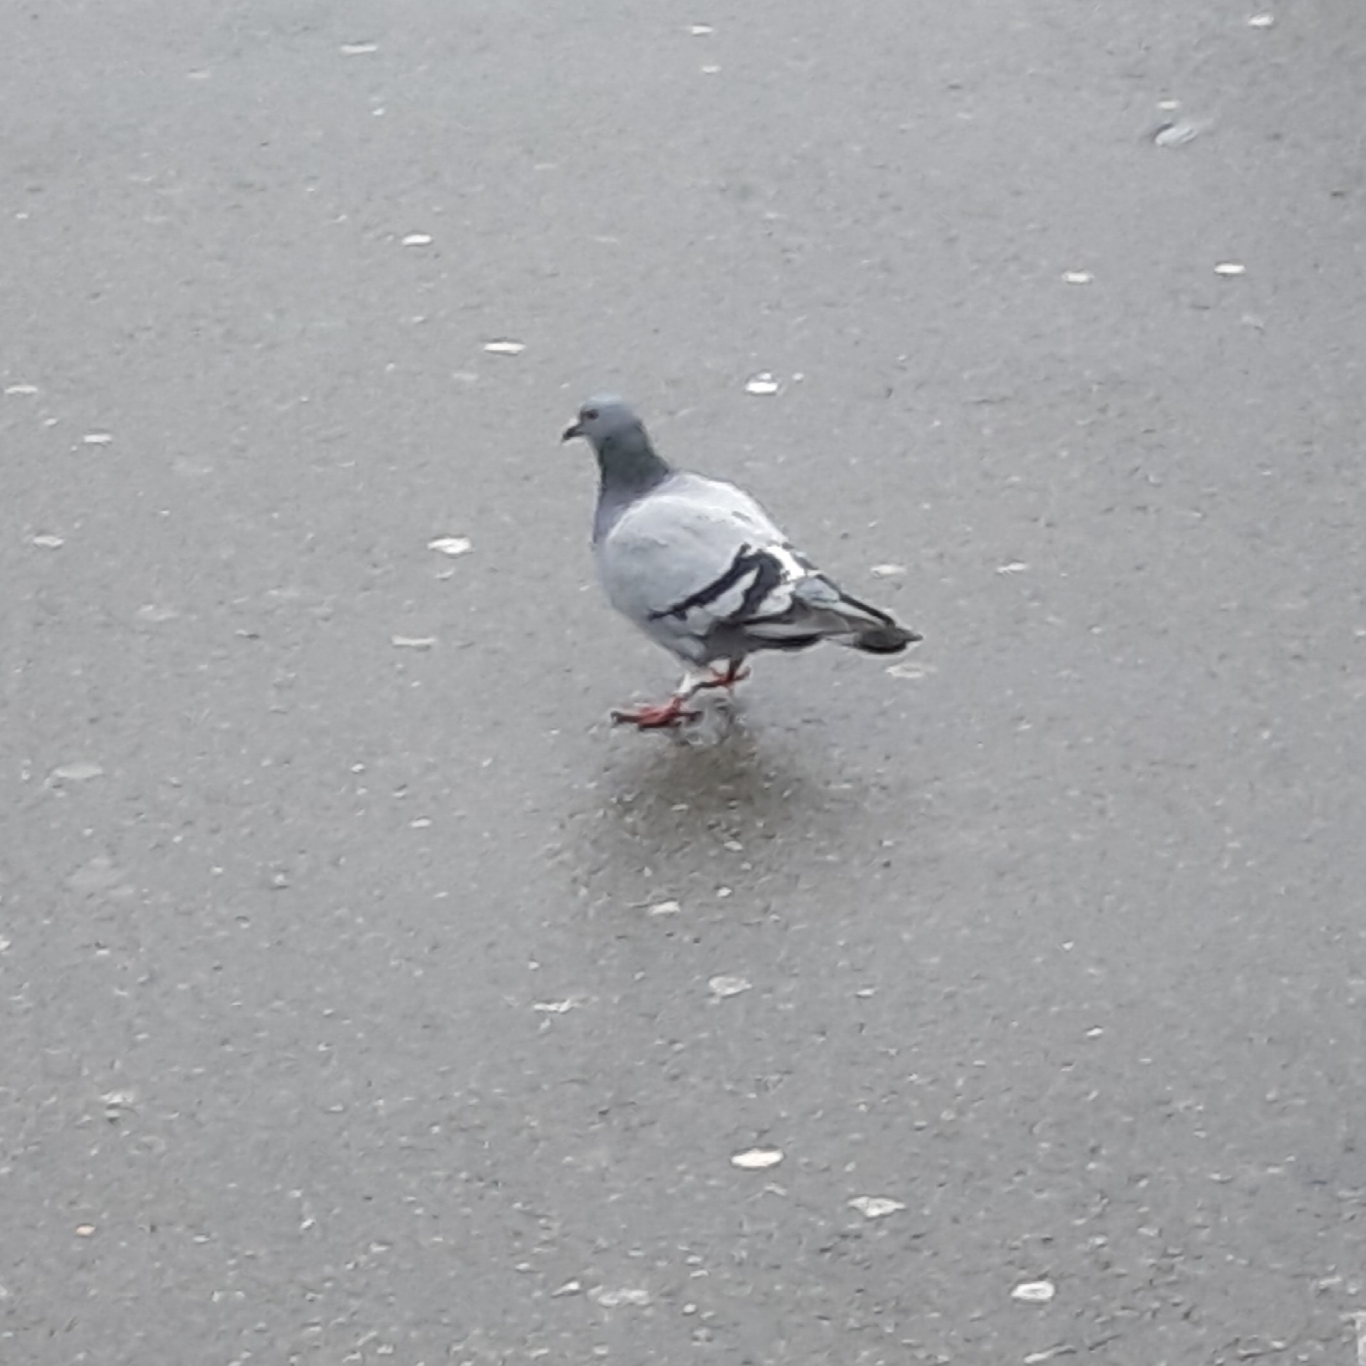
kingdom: Animalia
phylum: Chordata
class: Aves
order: Columbiformes
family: Columbidae
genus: Columba
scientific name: Columba livia
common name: Rock pigeon
